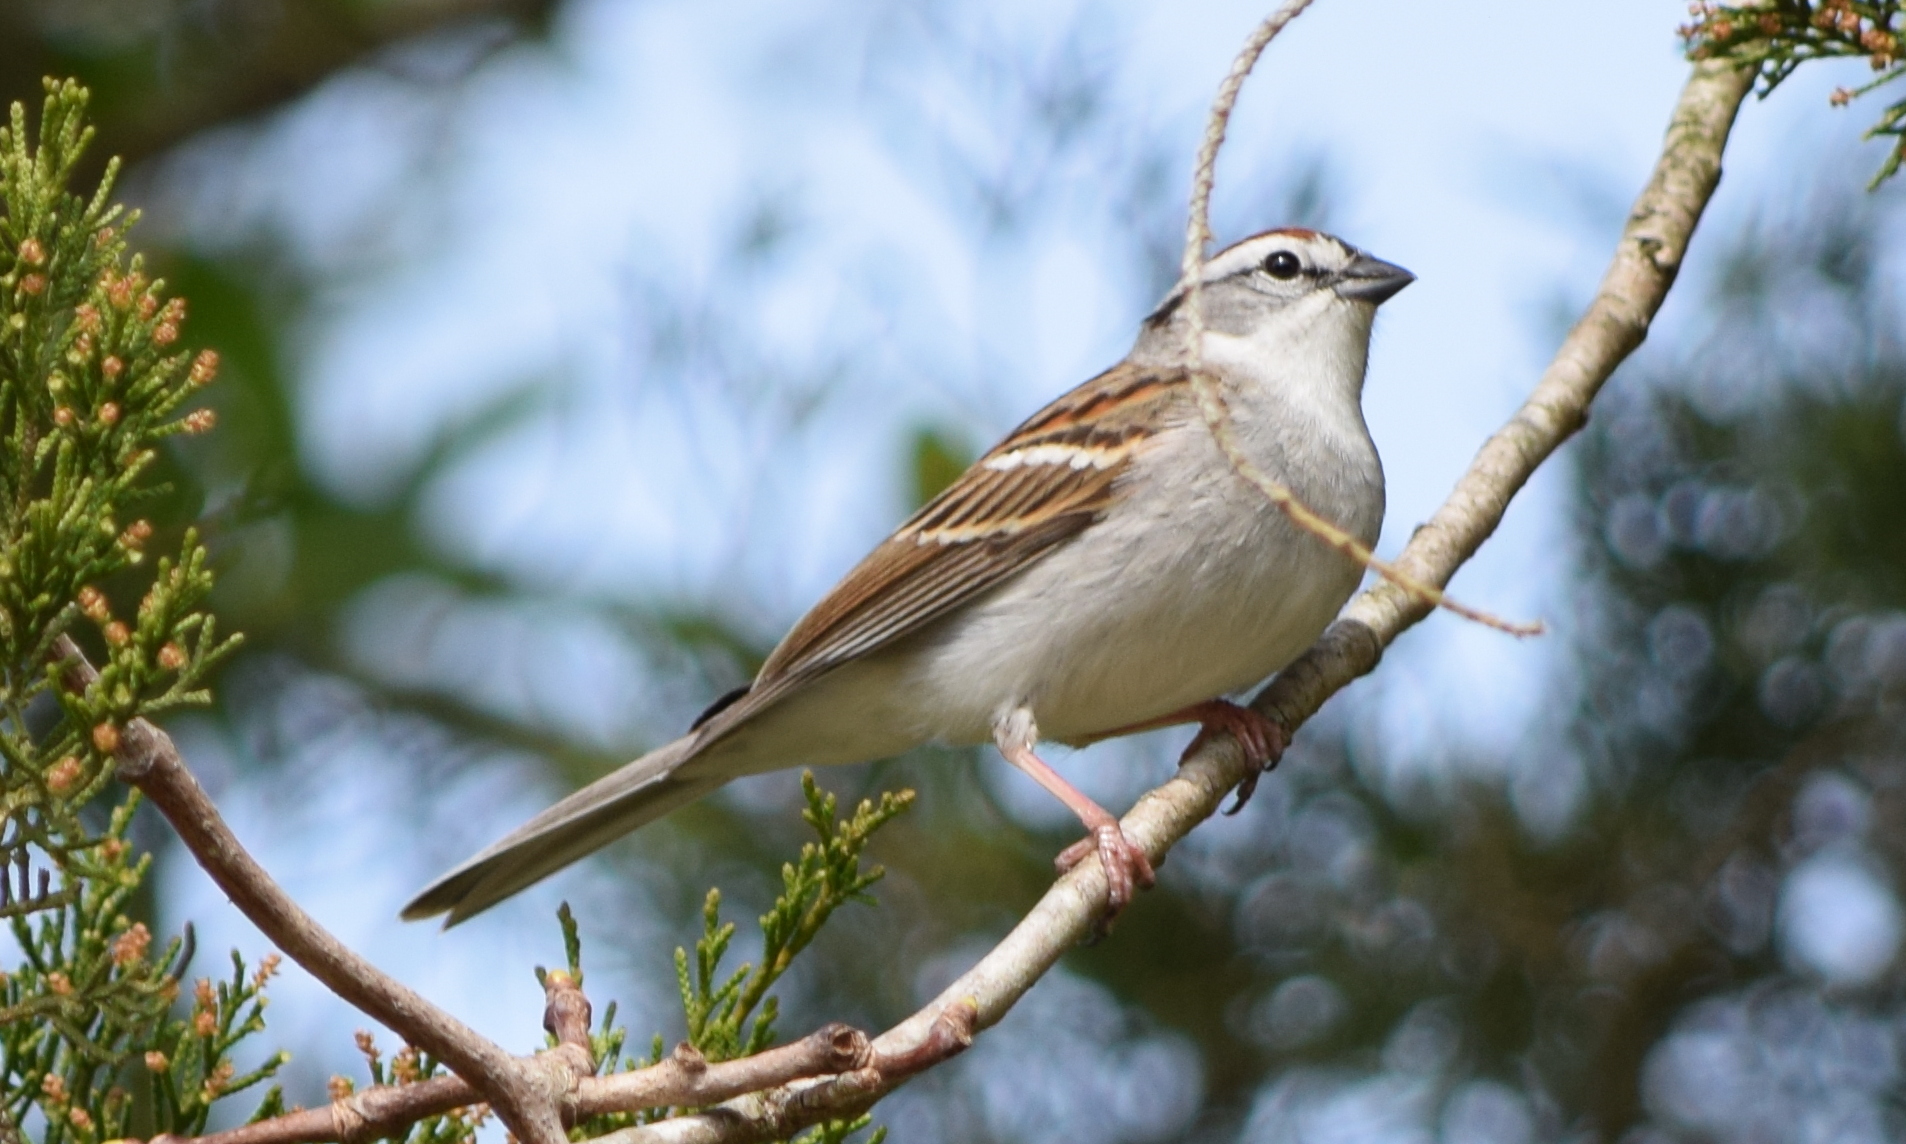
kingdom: Animalia
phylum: Chordata
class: Aves
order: Passeriformes
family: Passerellidae
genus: Spizella
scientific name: Spizella passerina
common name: Chipping sparrow
